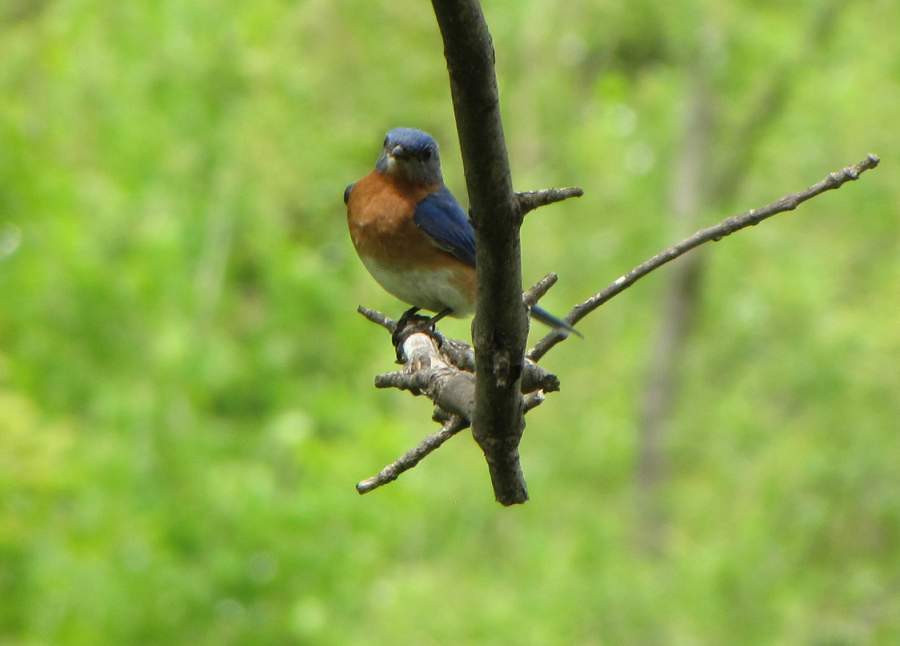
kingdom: Animalia
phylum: Chordata
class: Aves
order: Passeriformes
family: Turdidae
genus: Sialia
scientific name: Sialia sialis
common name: Eastern bluebird
